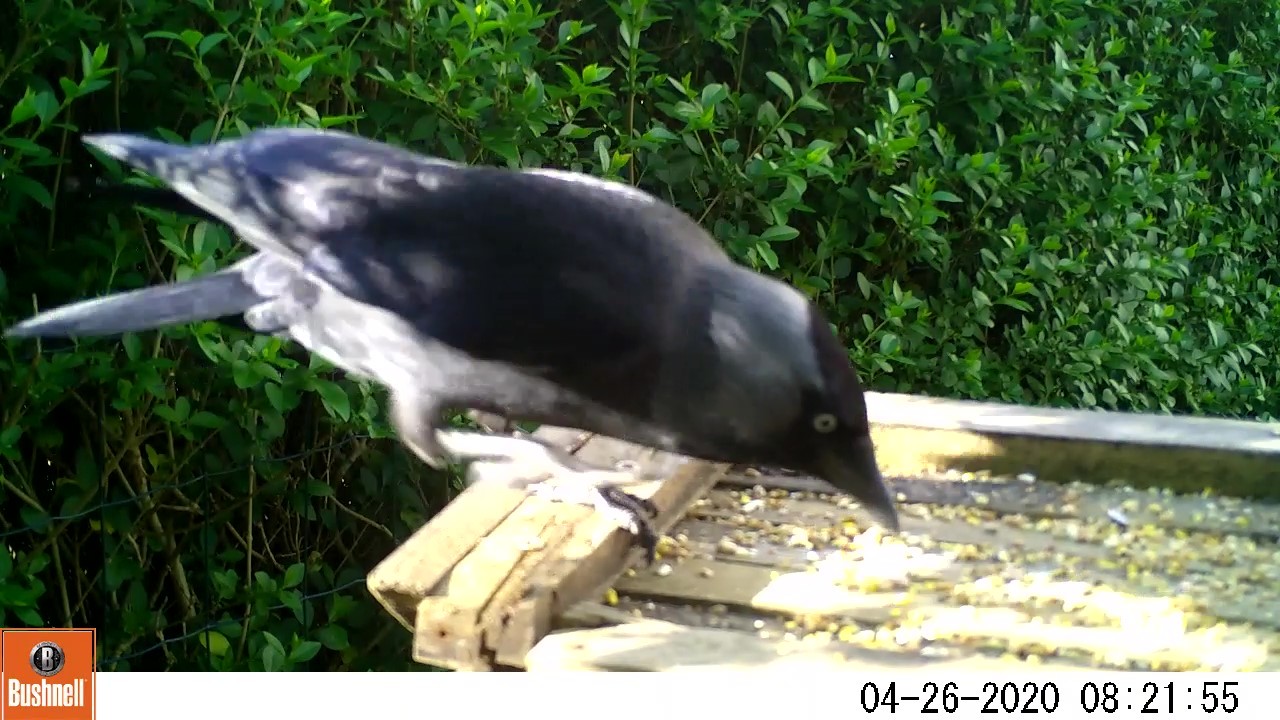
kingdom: Animalia
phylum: Chordata
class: Aves
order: Passeriformes
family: Corvidae
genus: Coloeus
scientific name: Coloeus monedula
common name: Western jackdaw
